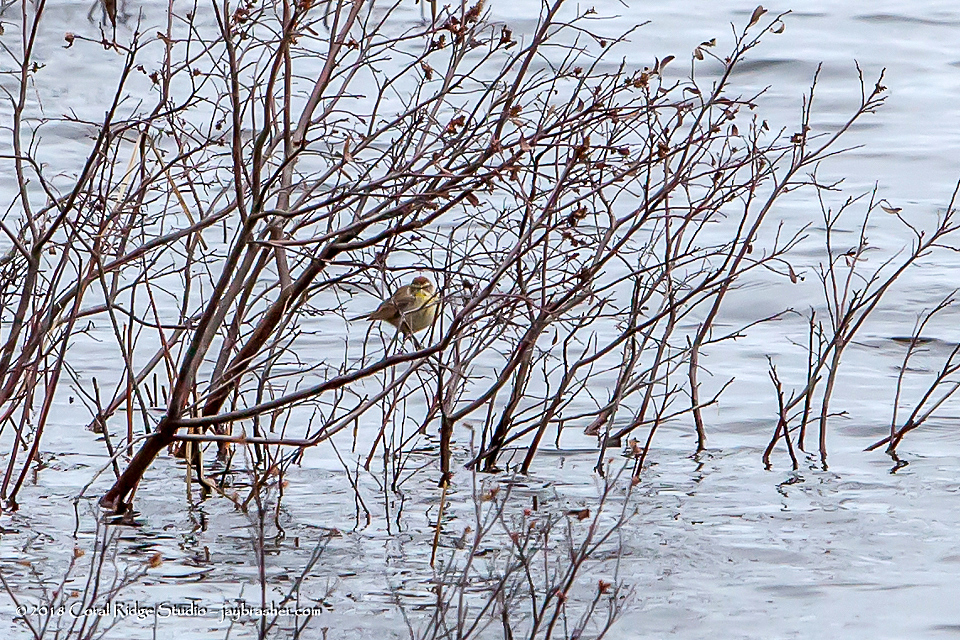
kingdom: Animalia
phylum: Chordata
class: Aves
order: Passeriformes
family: Parulidae
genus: Setophaga
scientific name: Setophaga palmarum
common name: Palm warbler
